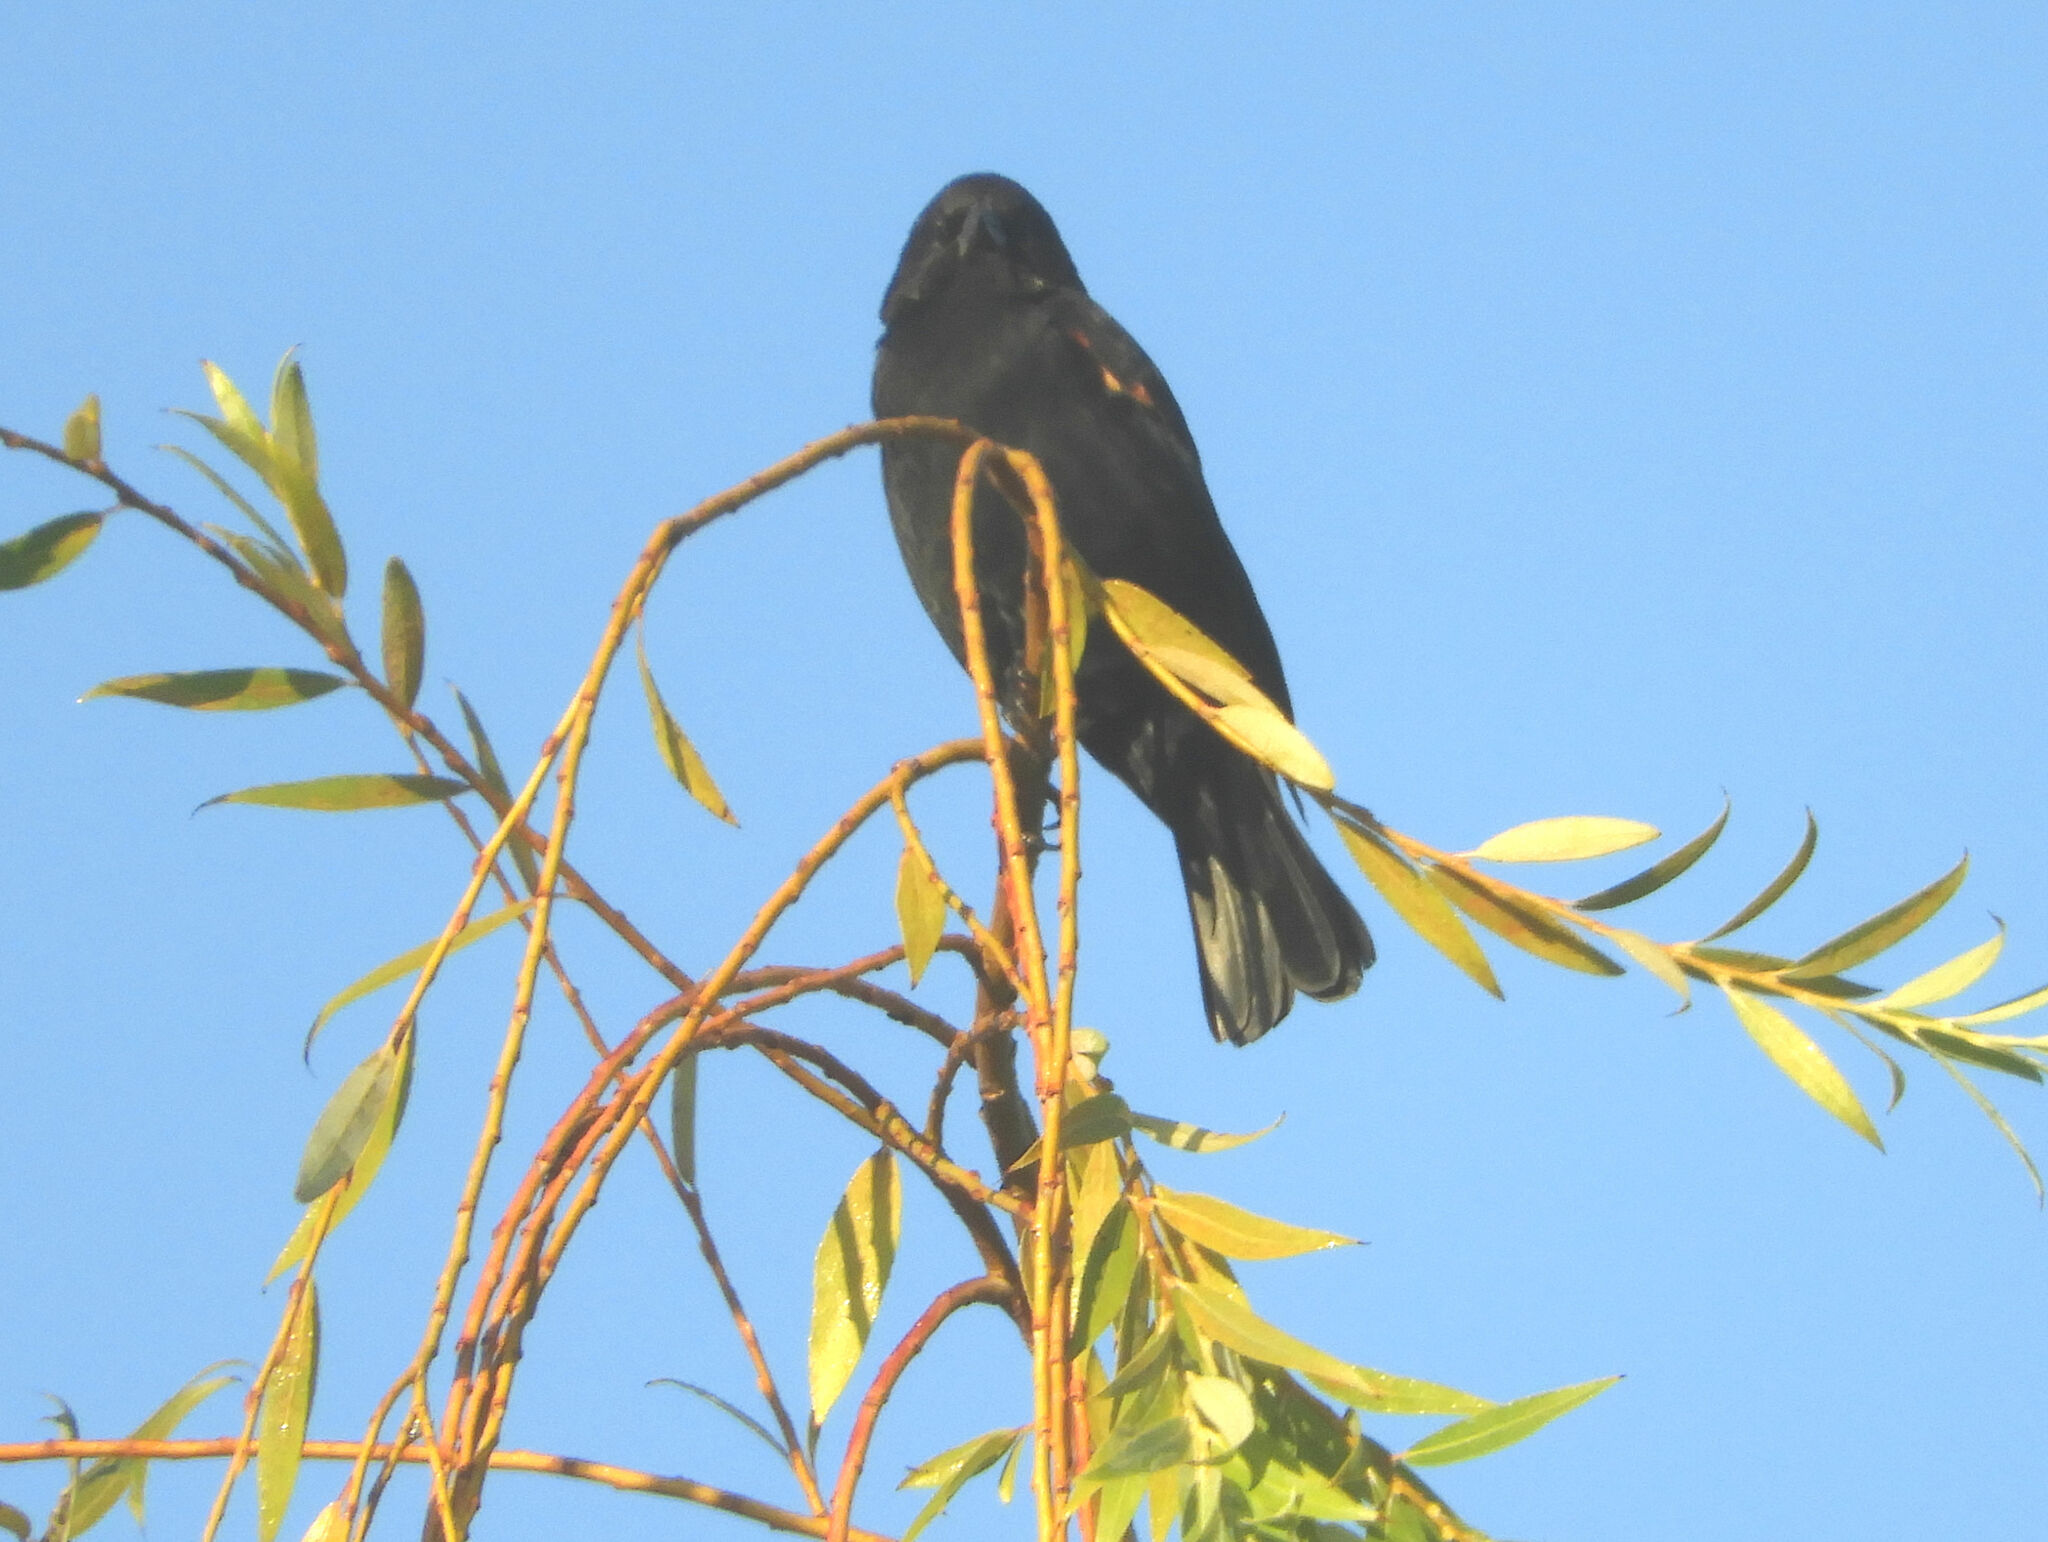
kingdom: Animalia
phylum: Chordata
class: Aves
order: Passeriformes
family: Icteridae
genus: Agelaius
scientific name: Agelaius phoeniceus
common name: Red-winged blackbird
